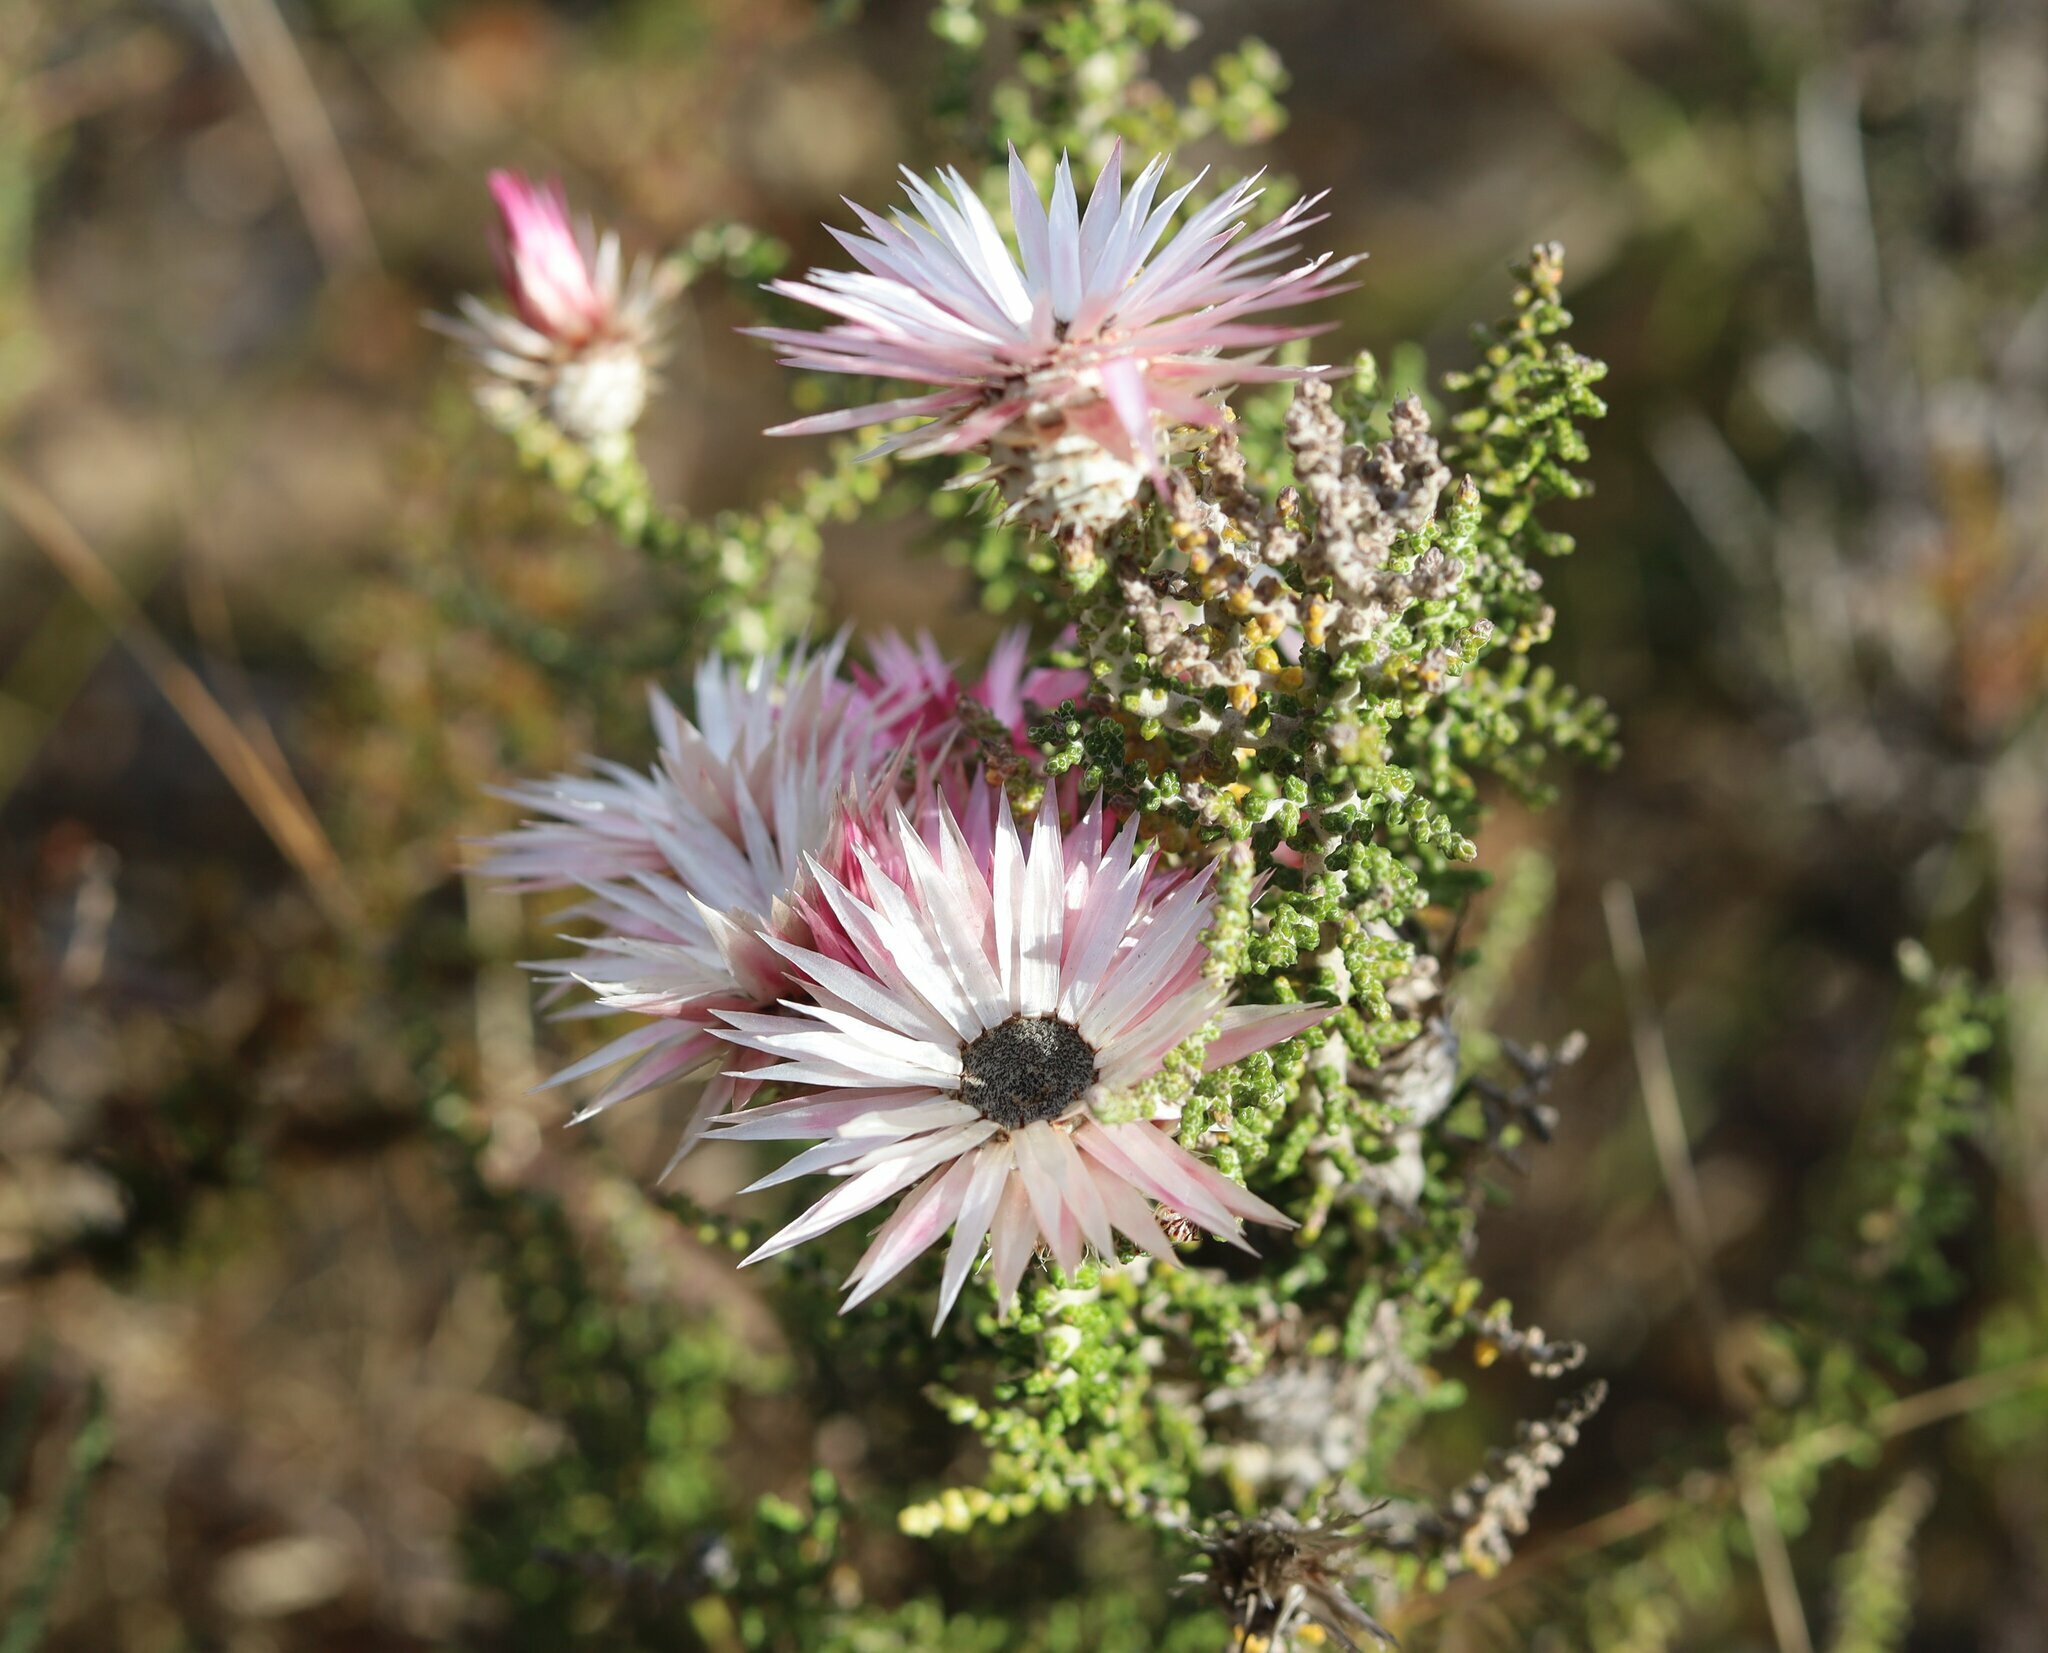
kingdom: Plantae
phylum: Tracheophyta
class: Magnoliopsida
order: Asterales
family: Asteraceae
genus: Phaenocoma
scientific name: Phaenocoma prolifera
